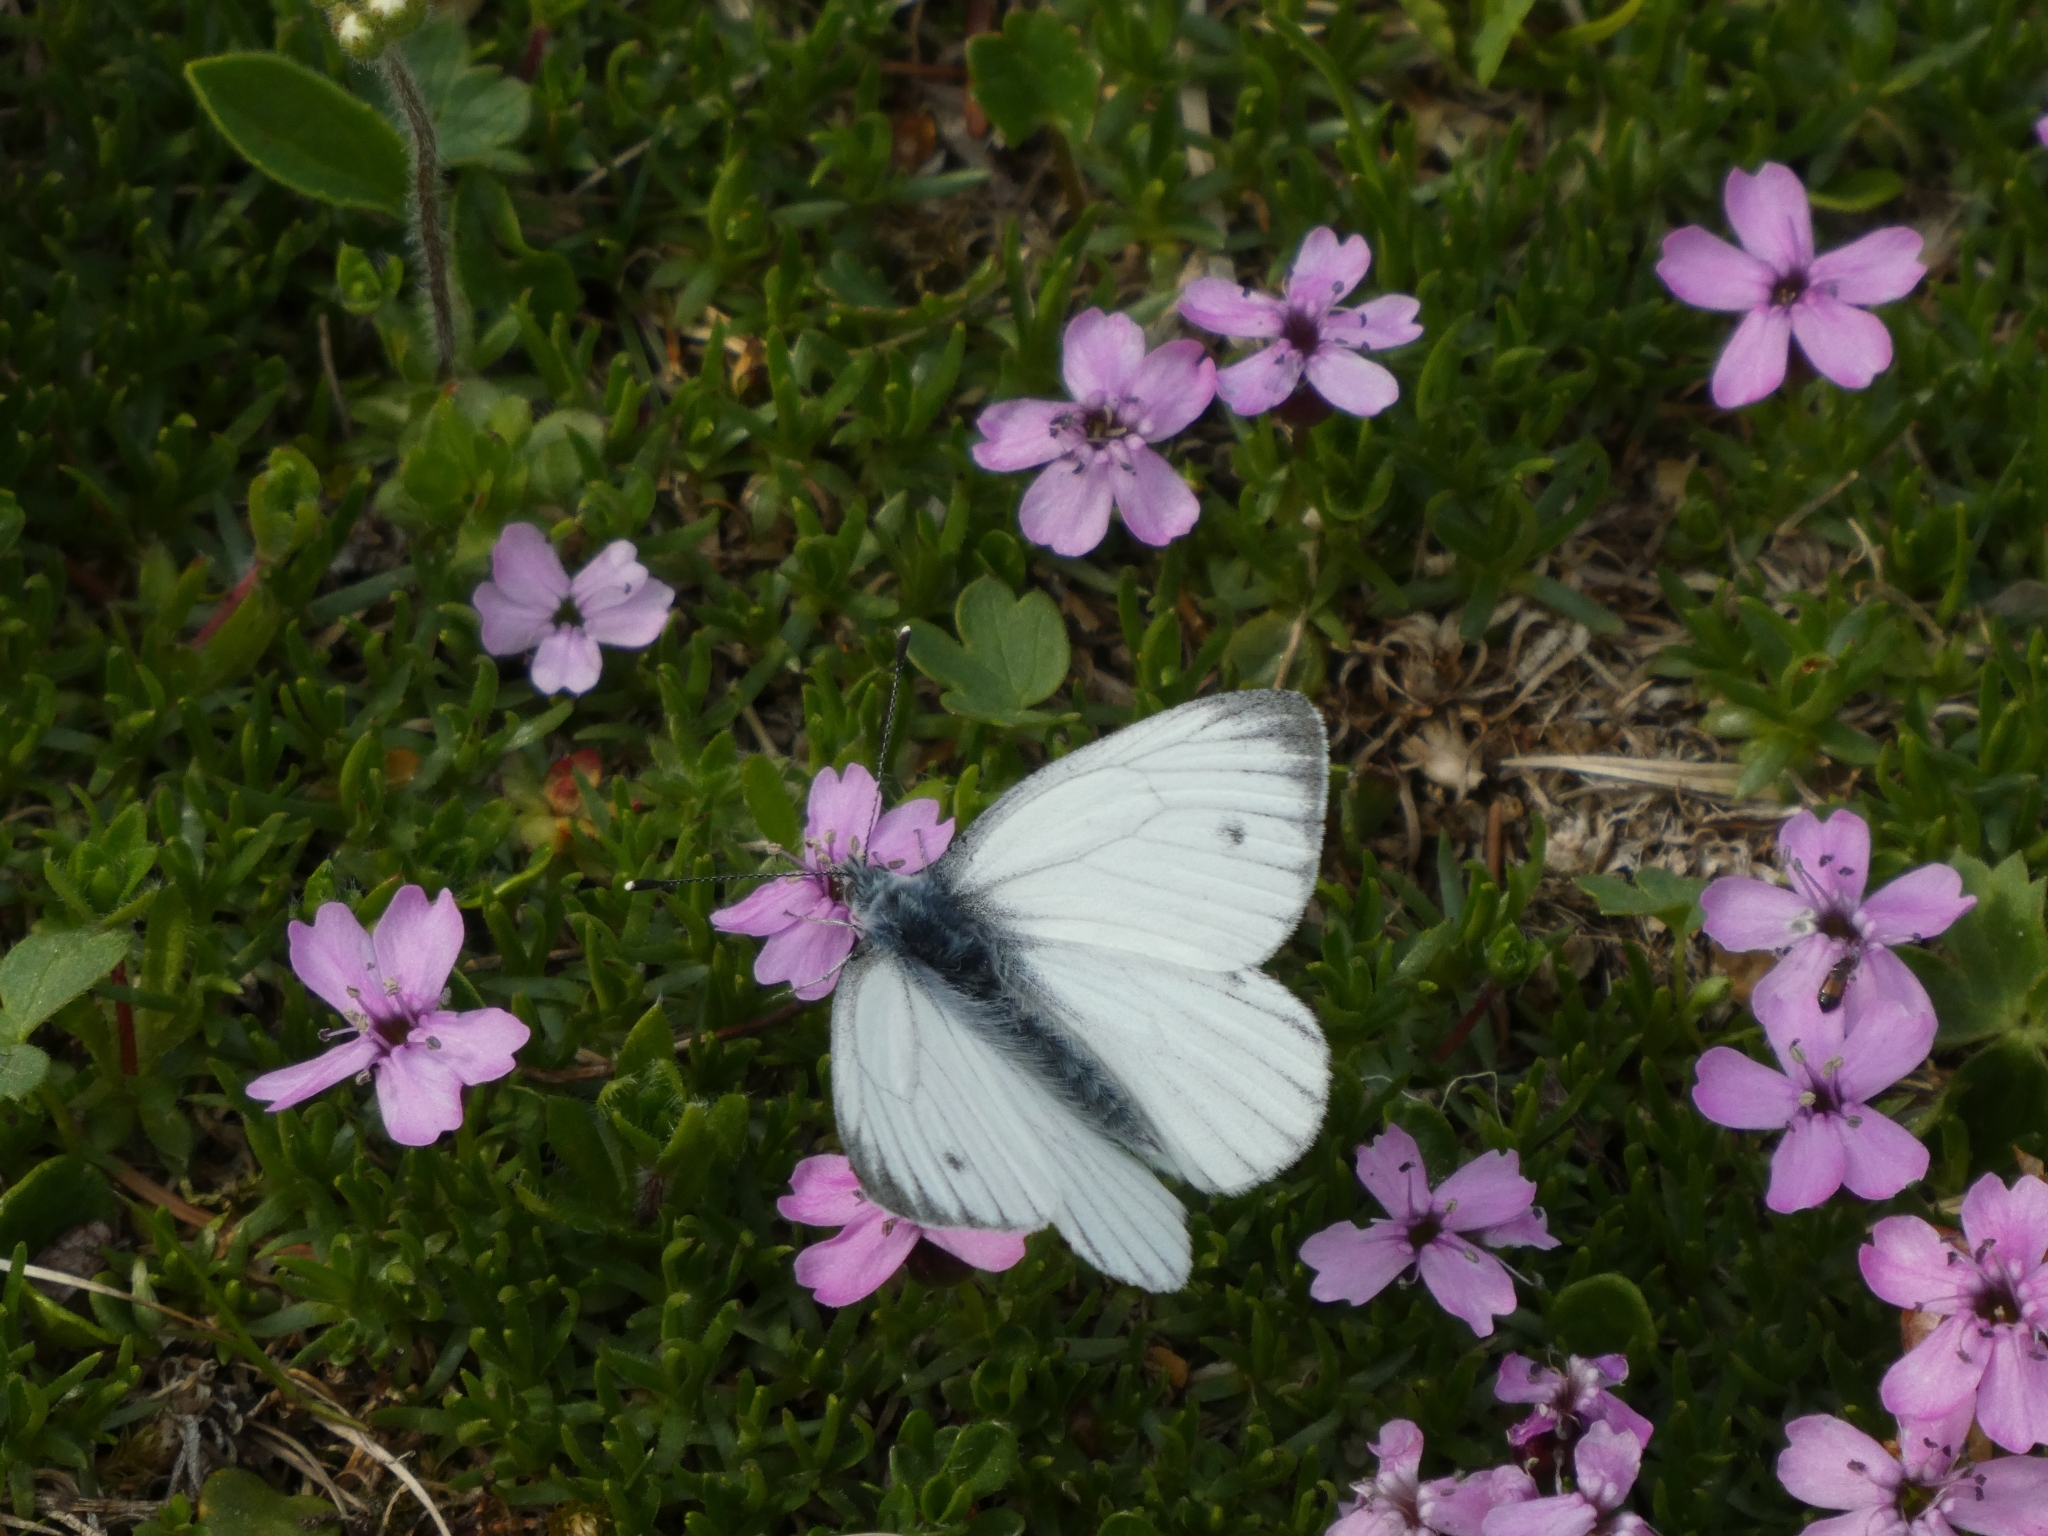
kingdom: Animalia
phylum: Arthropoda
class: Insecta
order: Lepidoptera
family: Pieridae
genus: Pieris
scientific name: Pieris napi
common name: Green-veined white
